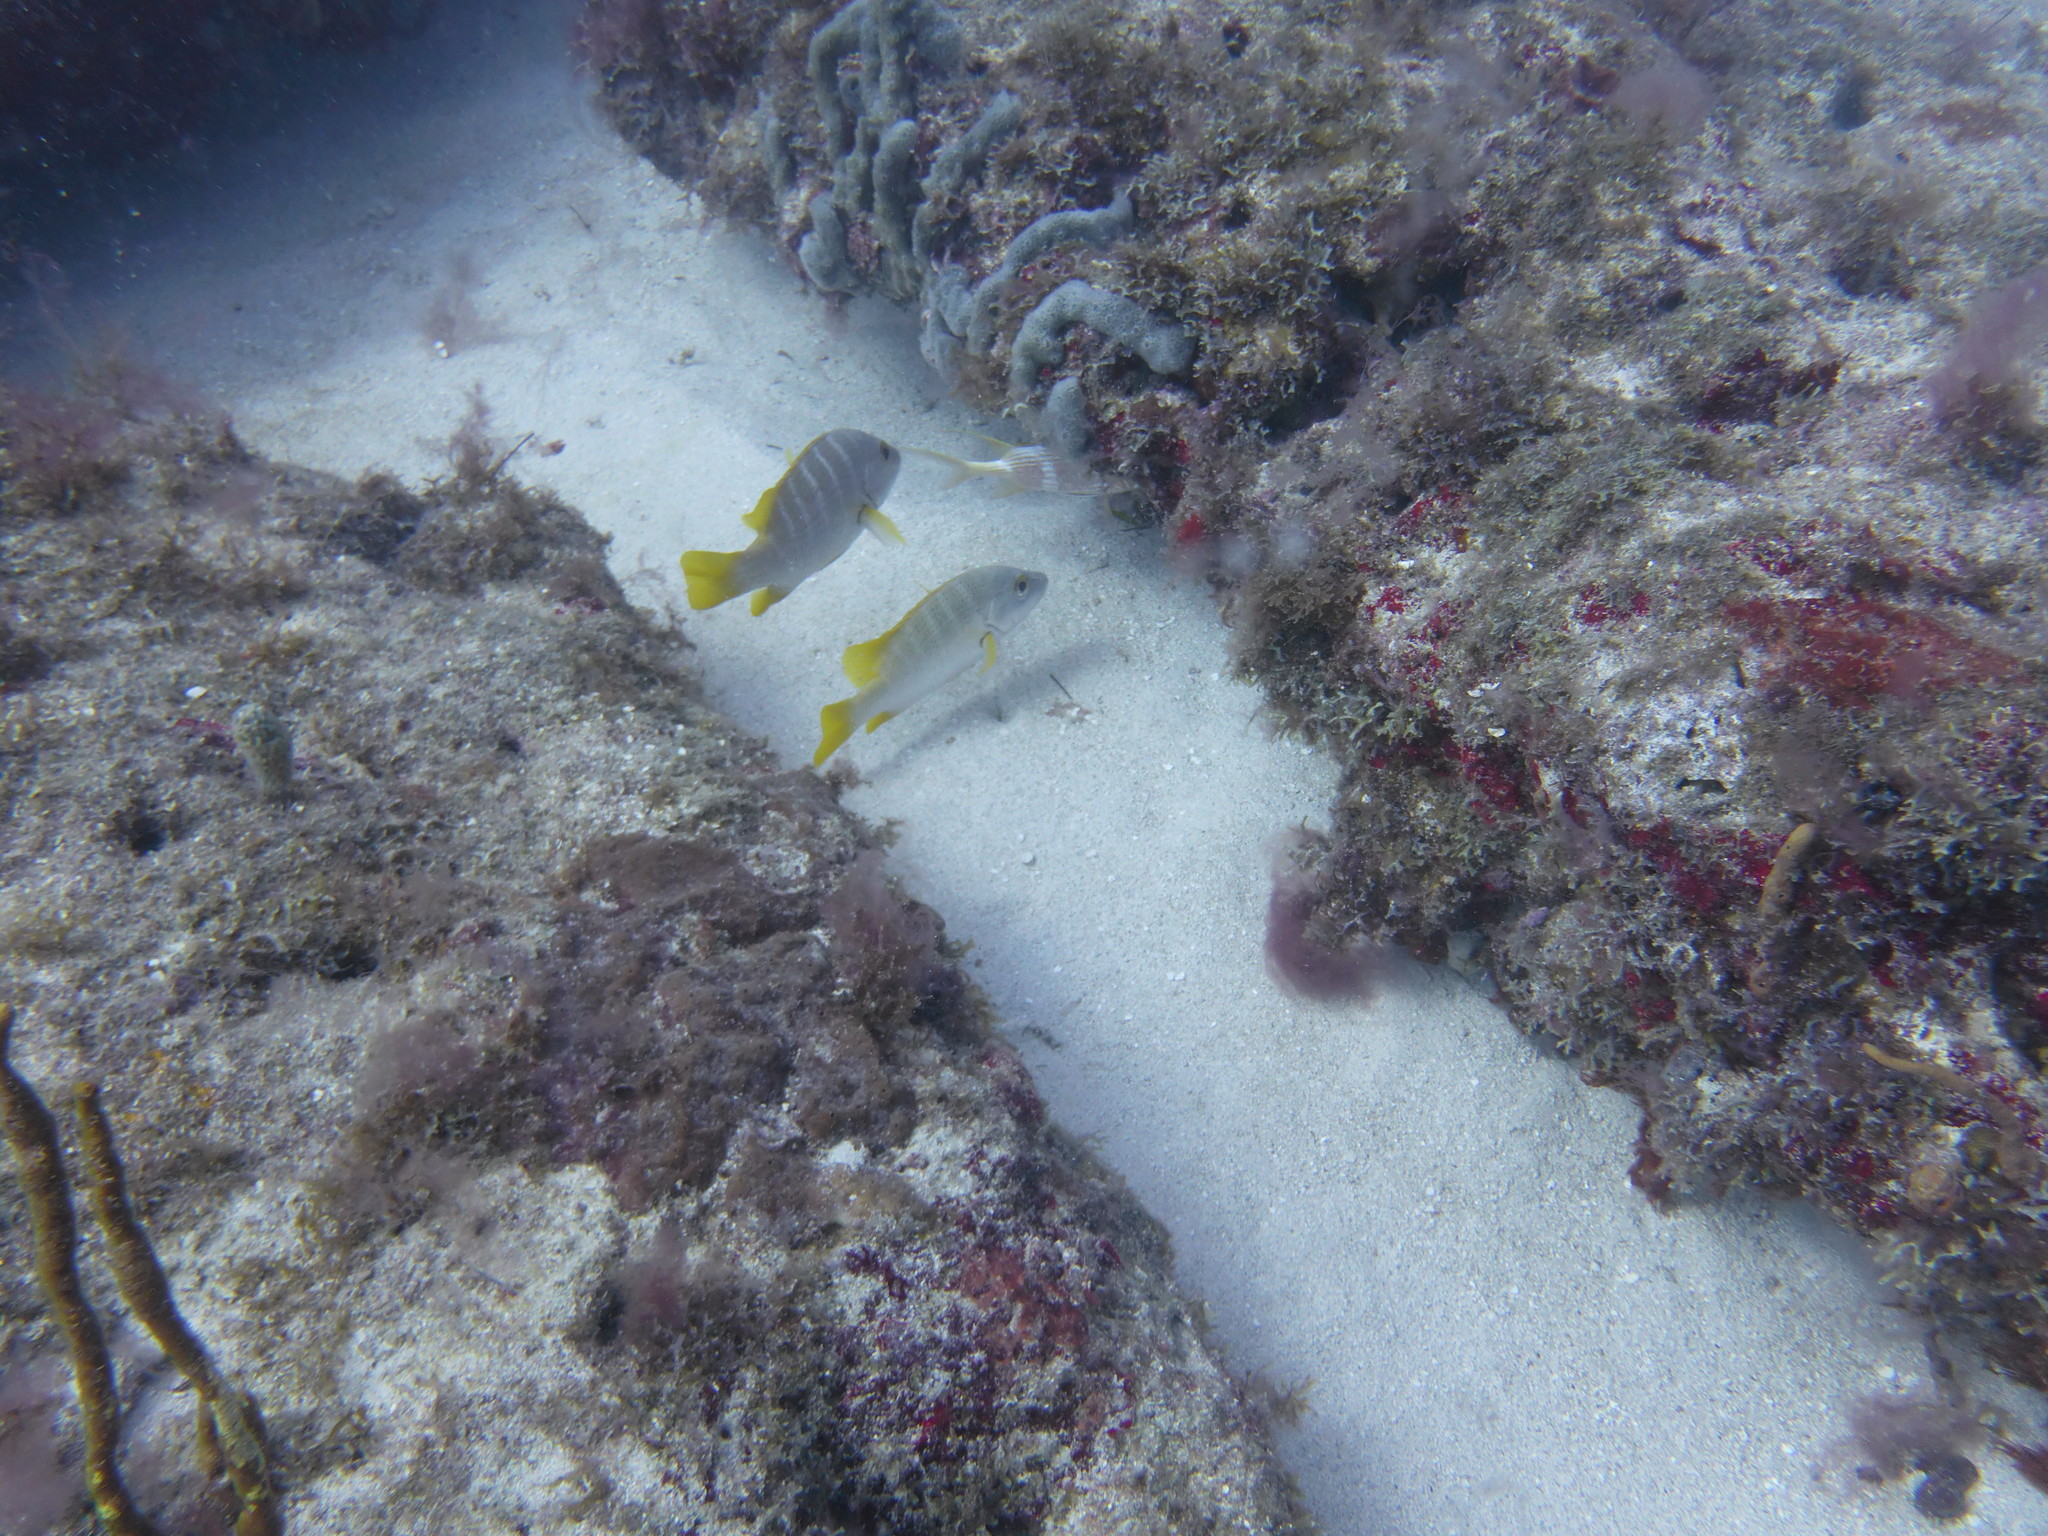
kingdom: Animalia
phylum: Chordata
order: Perciformes
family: Lutjanidae
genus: Lutjanus
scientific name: Lutjanus apodus
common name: Schoolmaster
